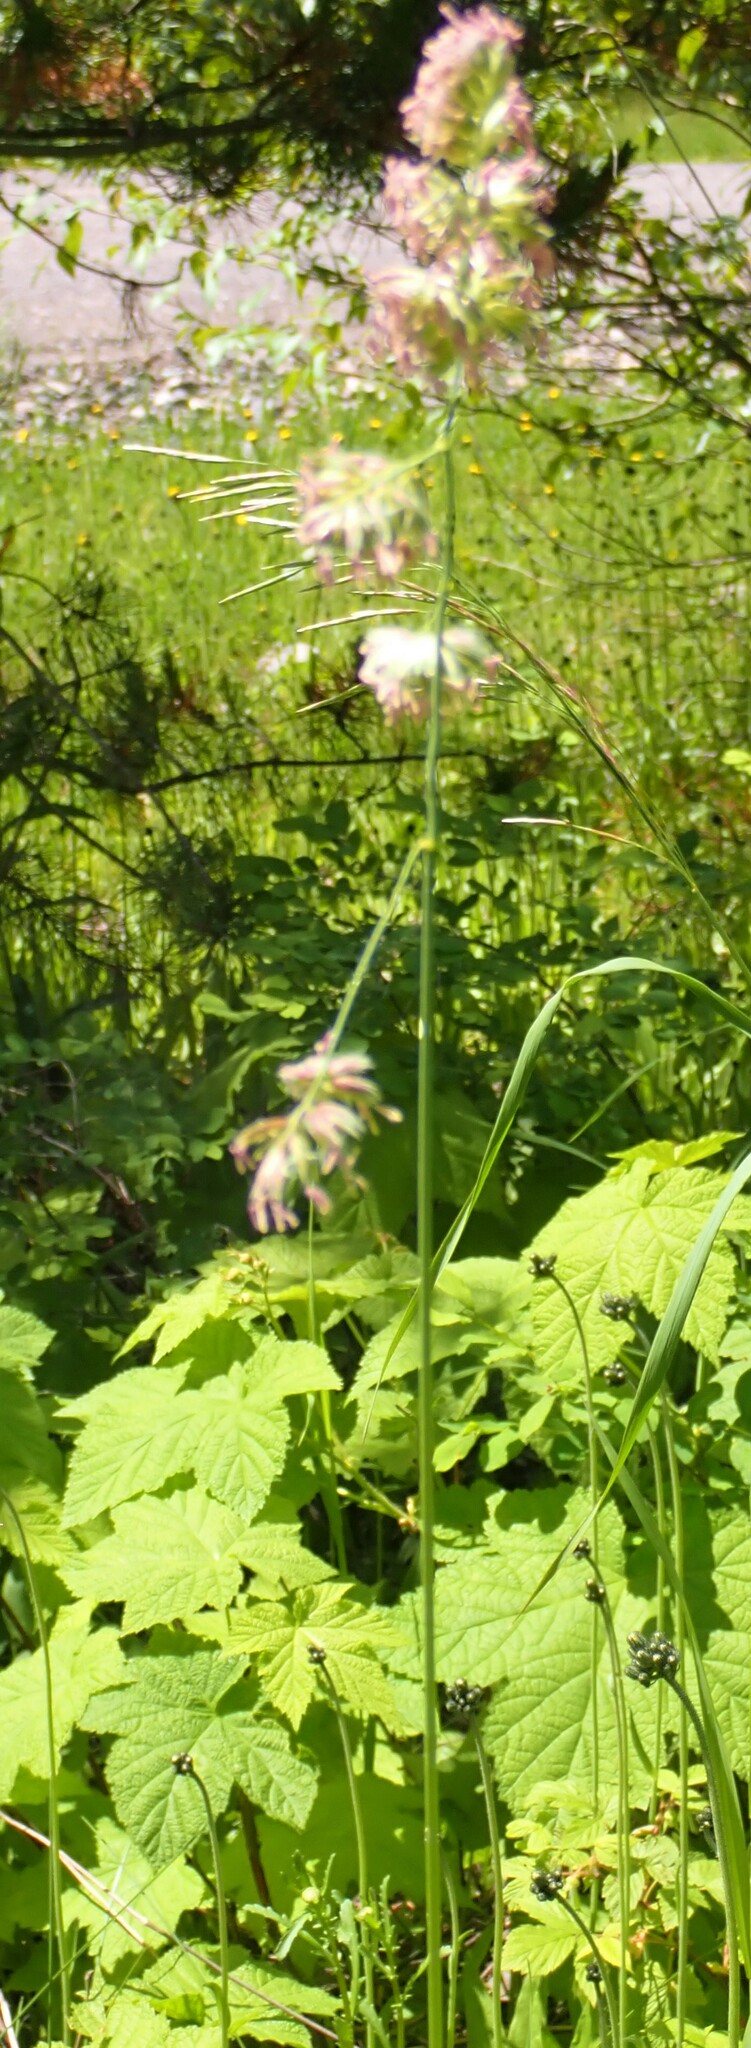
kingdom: Plantae
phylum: Tracheophyta
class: Liliopsida
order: Poales
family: Poaceae
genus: Dactylis
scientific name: Dactylis glomerata
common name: Orchardgrass
